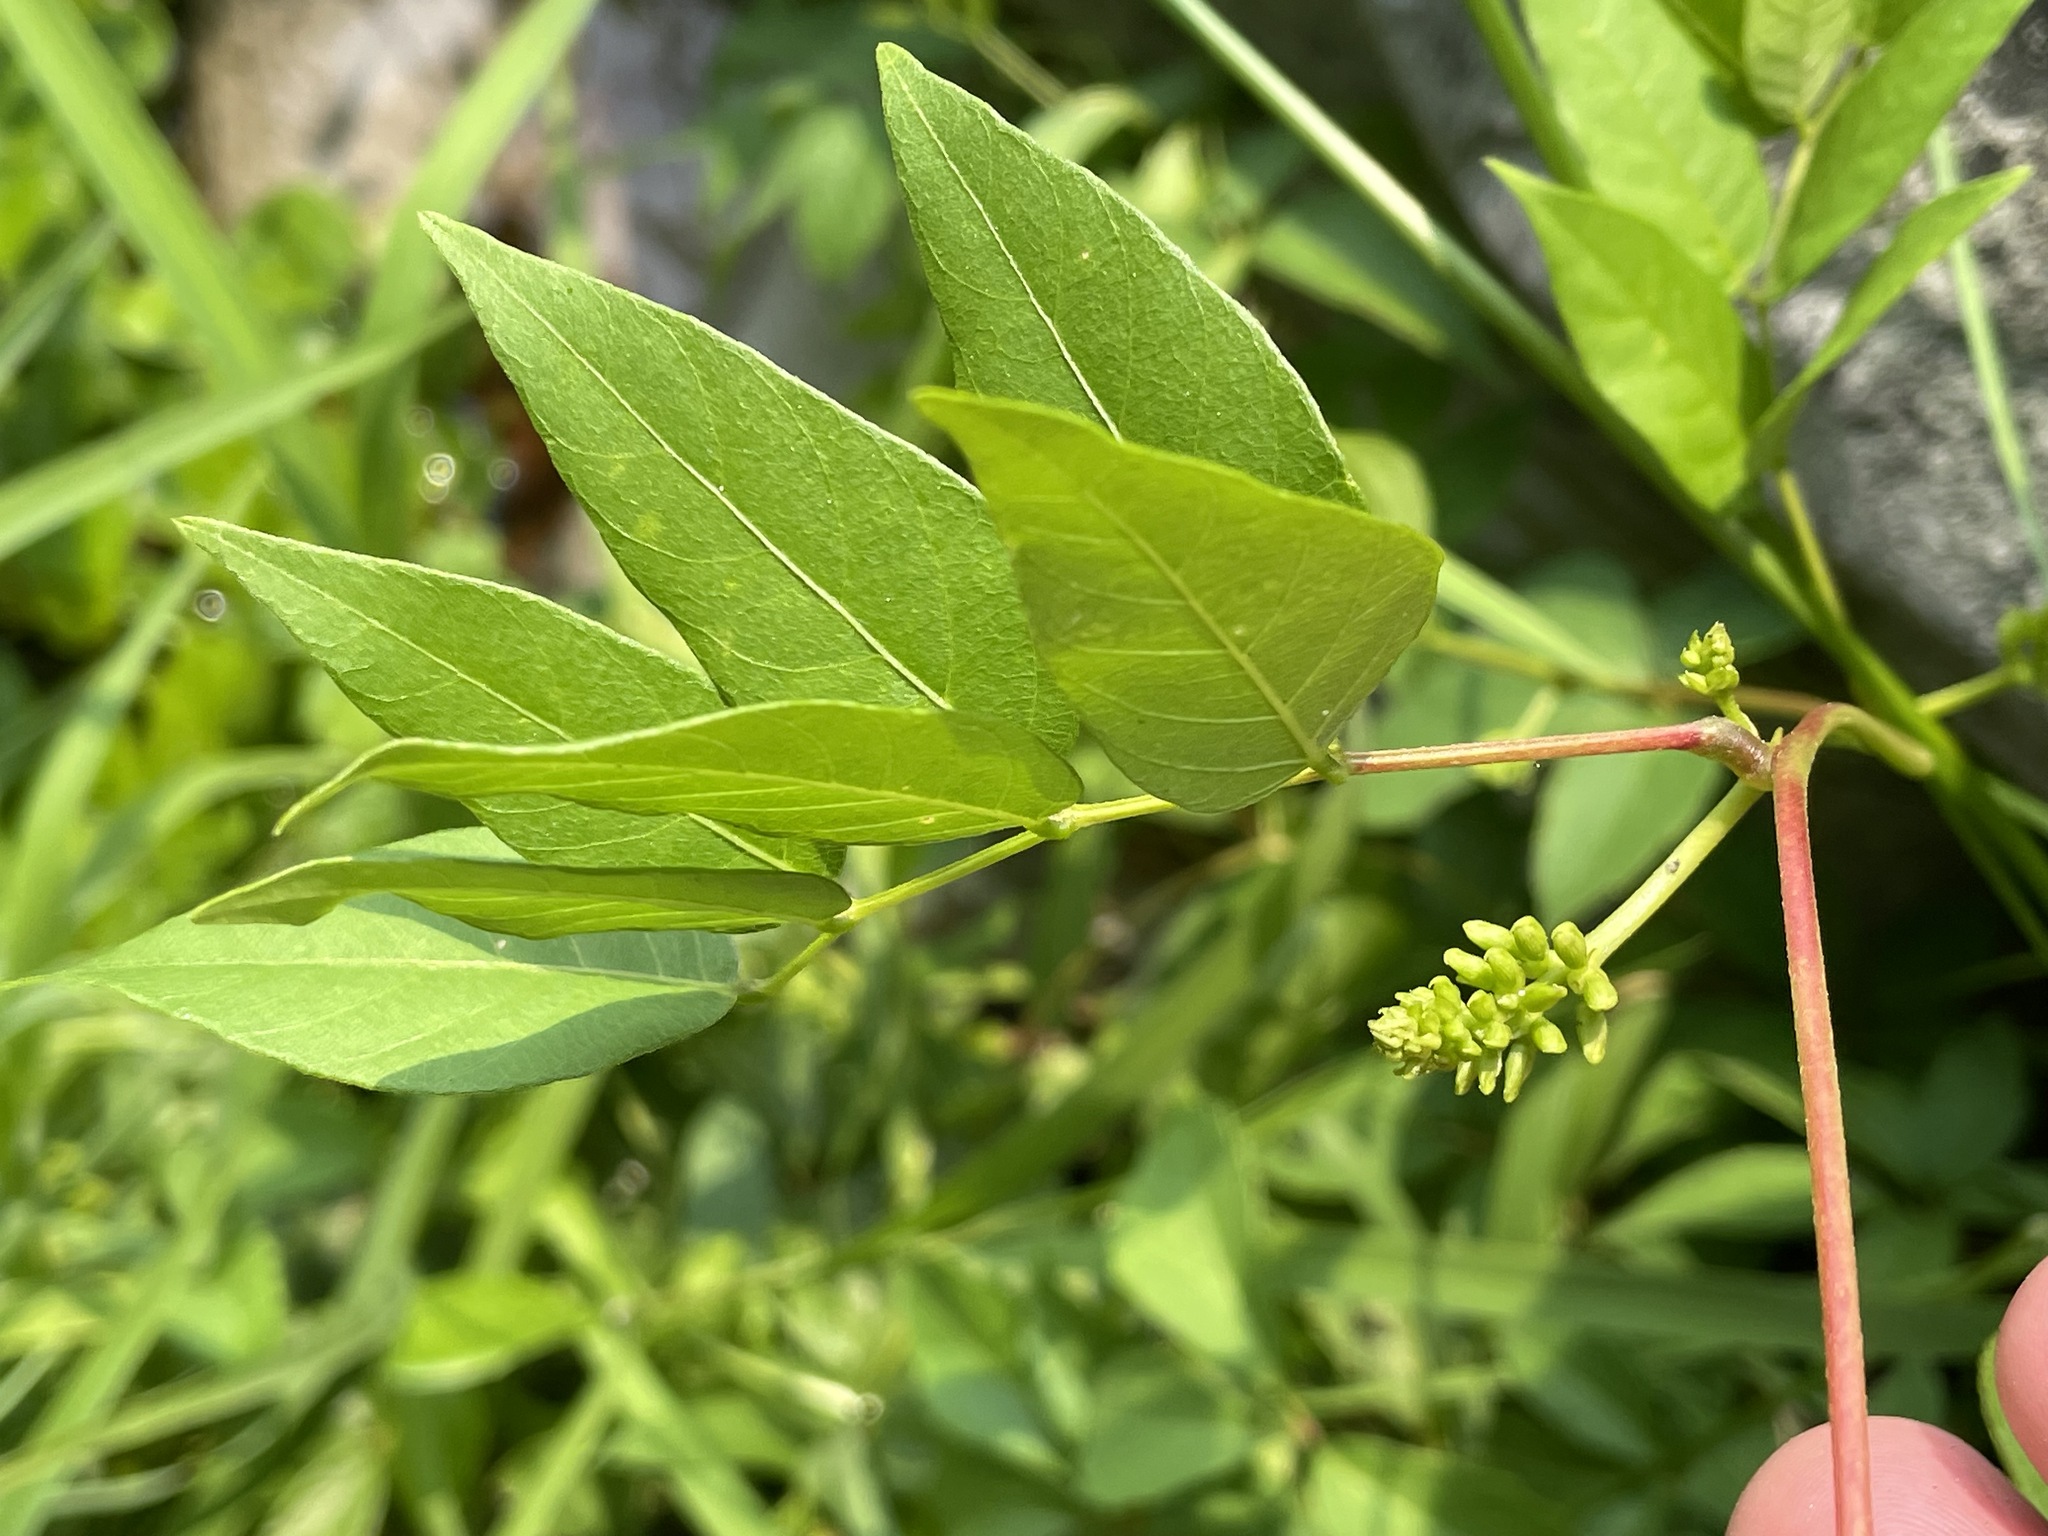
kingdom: Plantae
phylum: Tracheophyta
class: Magnoliopsida
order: Fabales
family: Fabaceae
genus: Apios
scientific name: Apios americana
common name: American potato-bean
